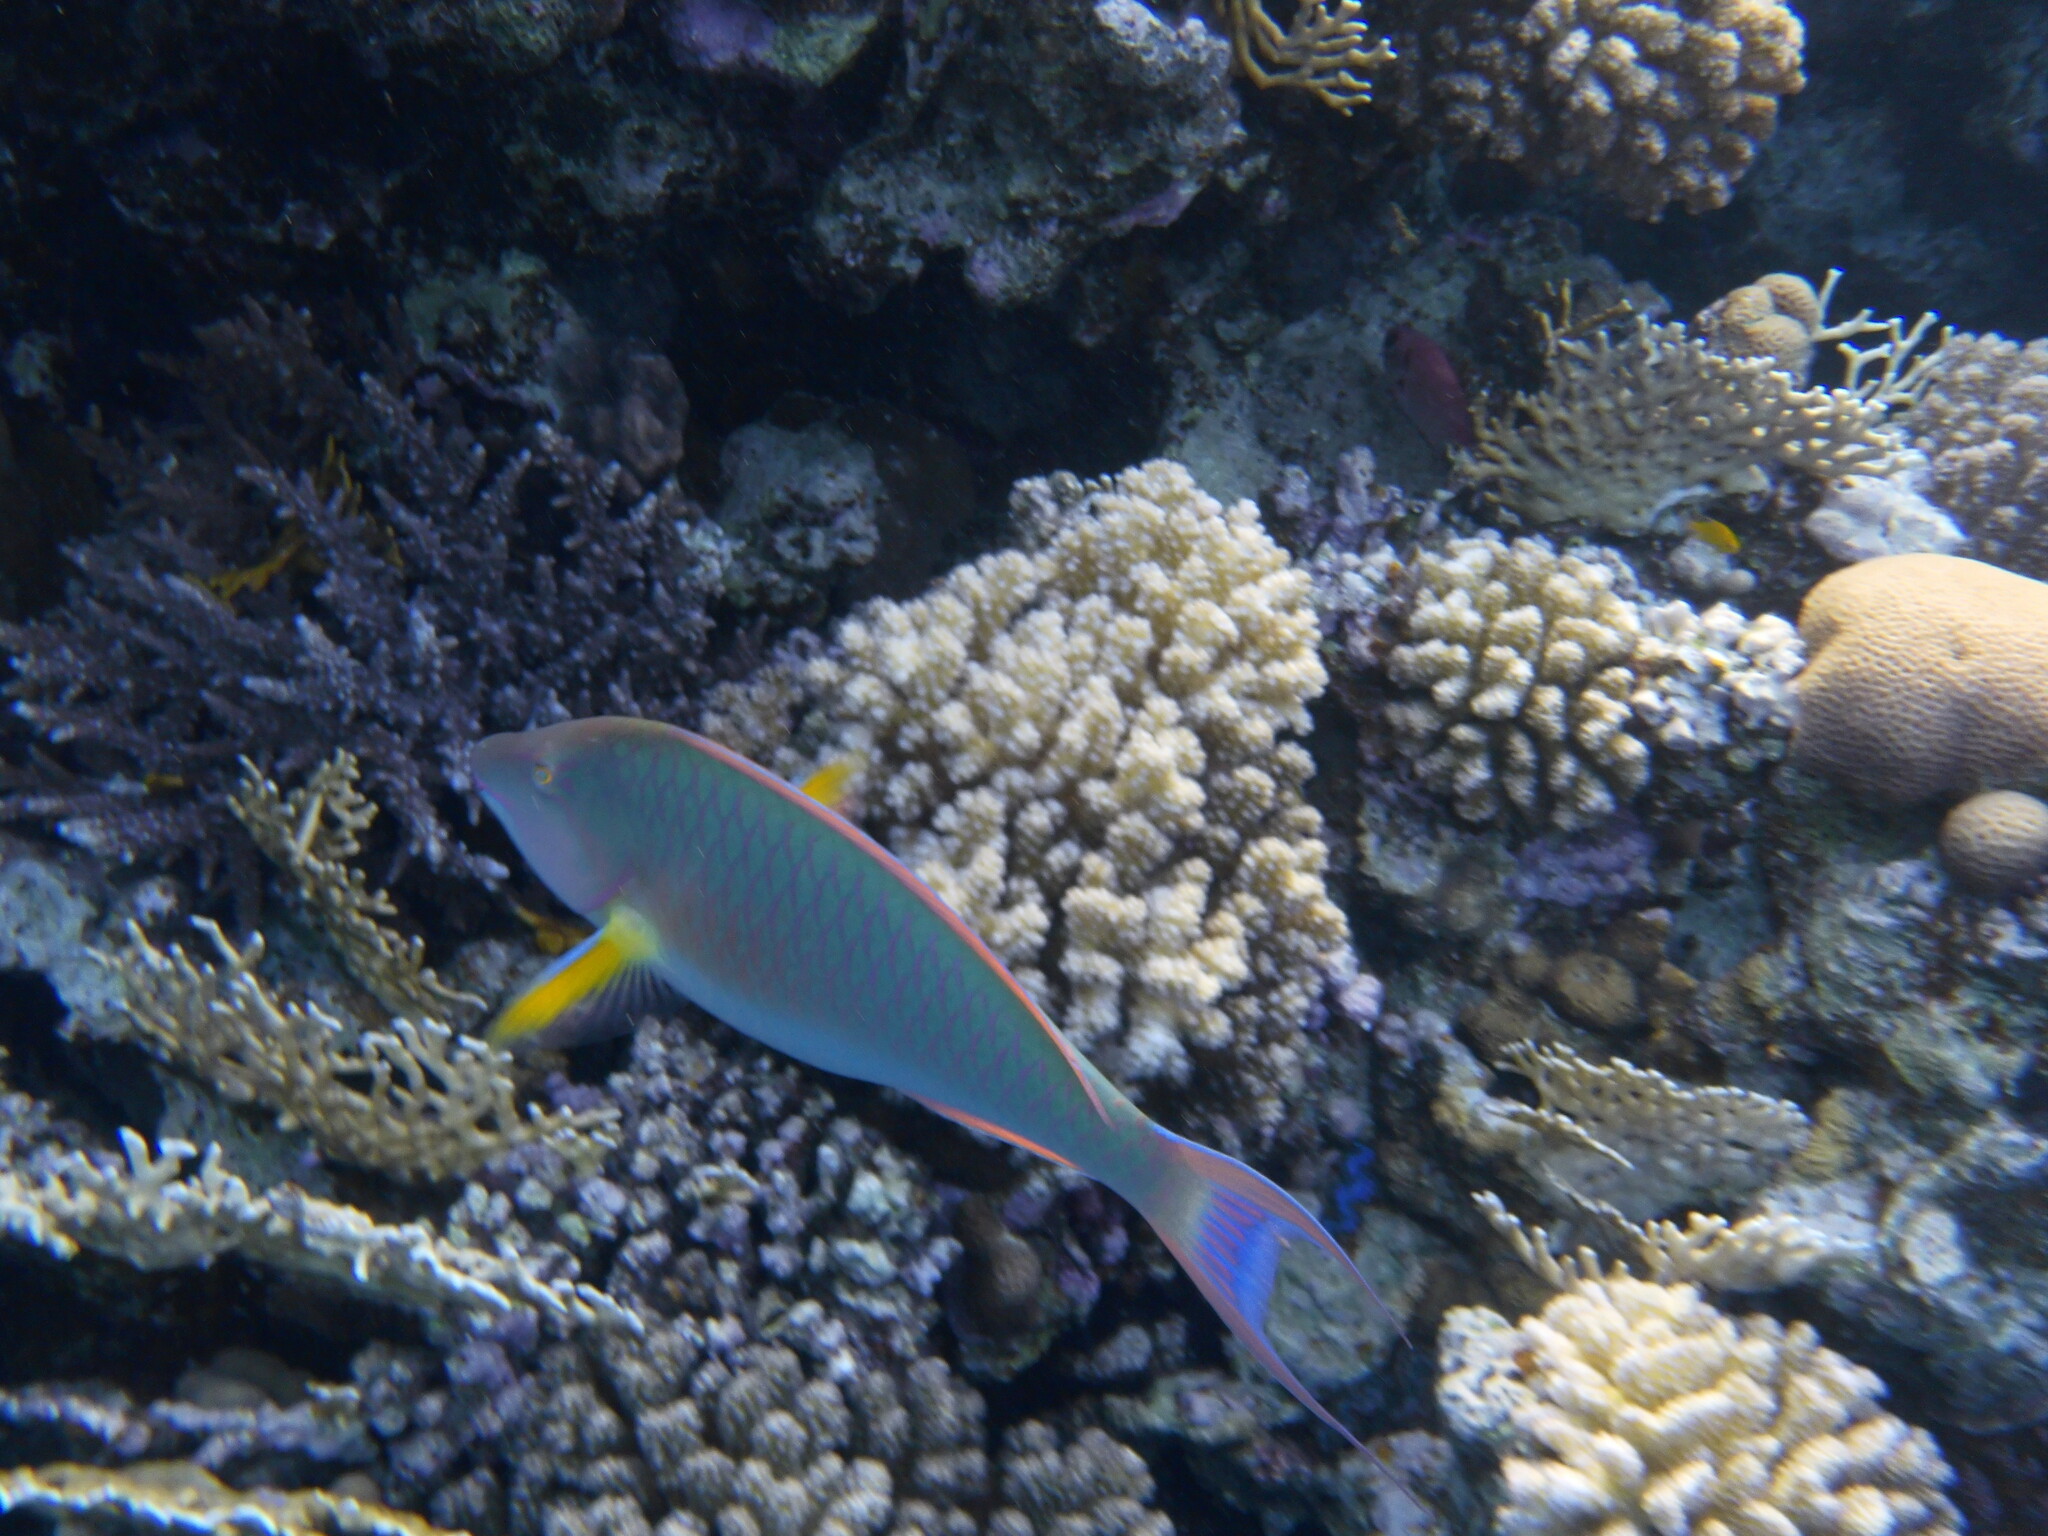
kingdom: Animalia
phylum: Chordata
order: Perciformes
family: Scaridae
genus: Hipposcarus
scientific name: Hipposcarus harid
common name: Candelamoa parrotfish
